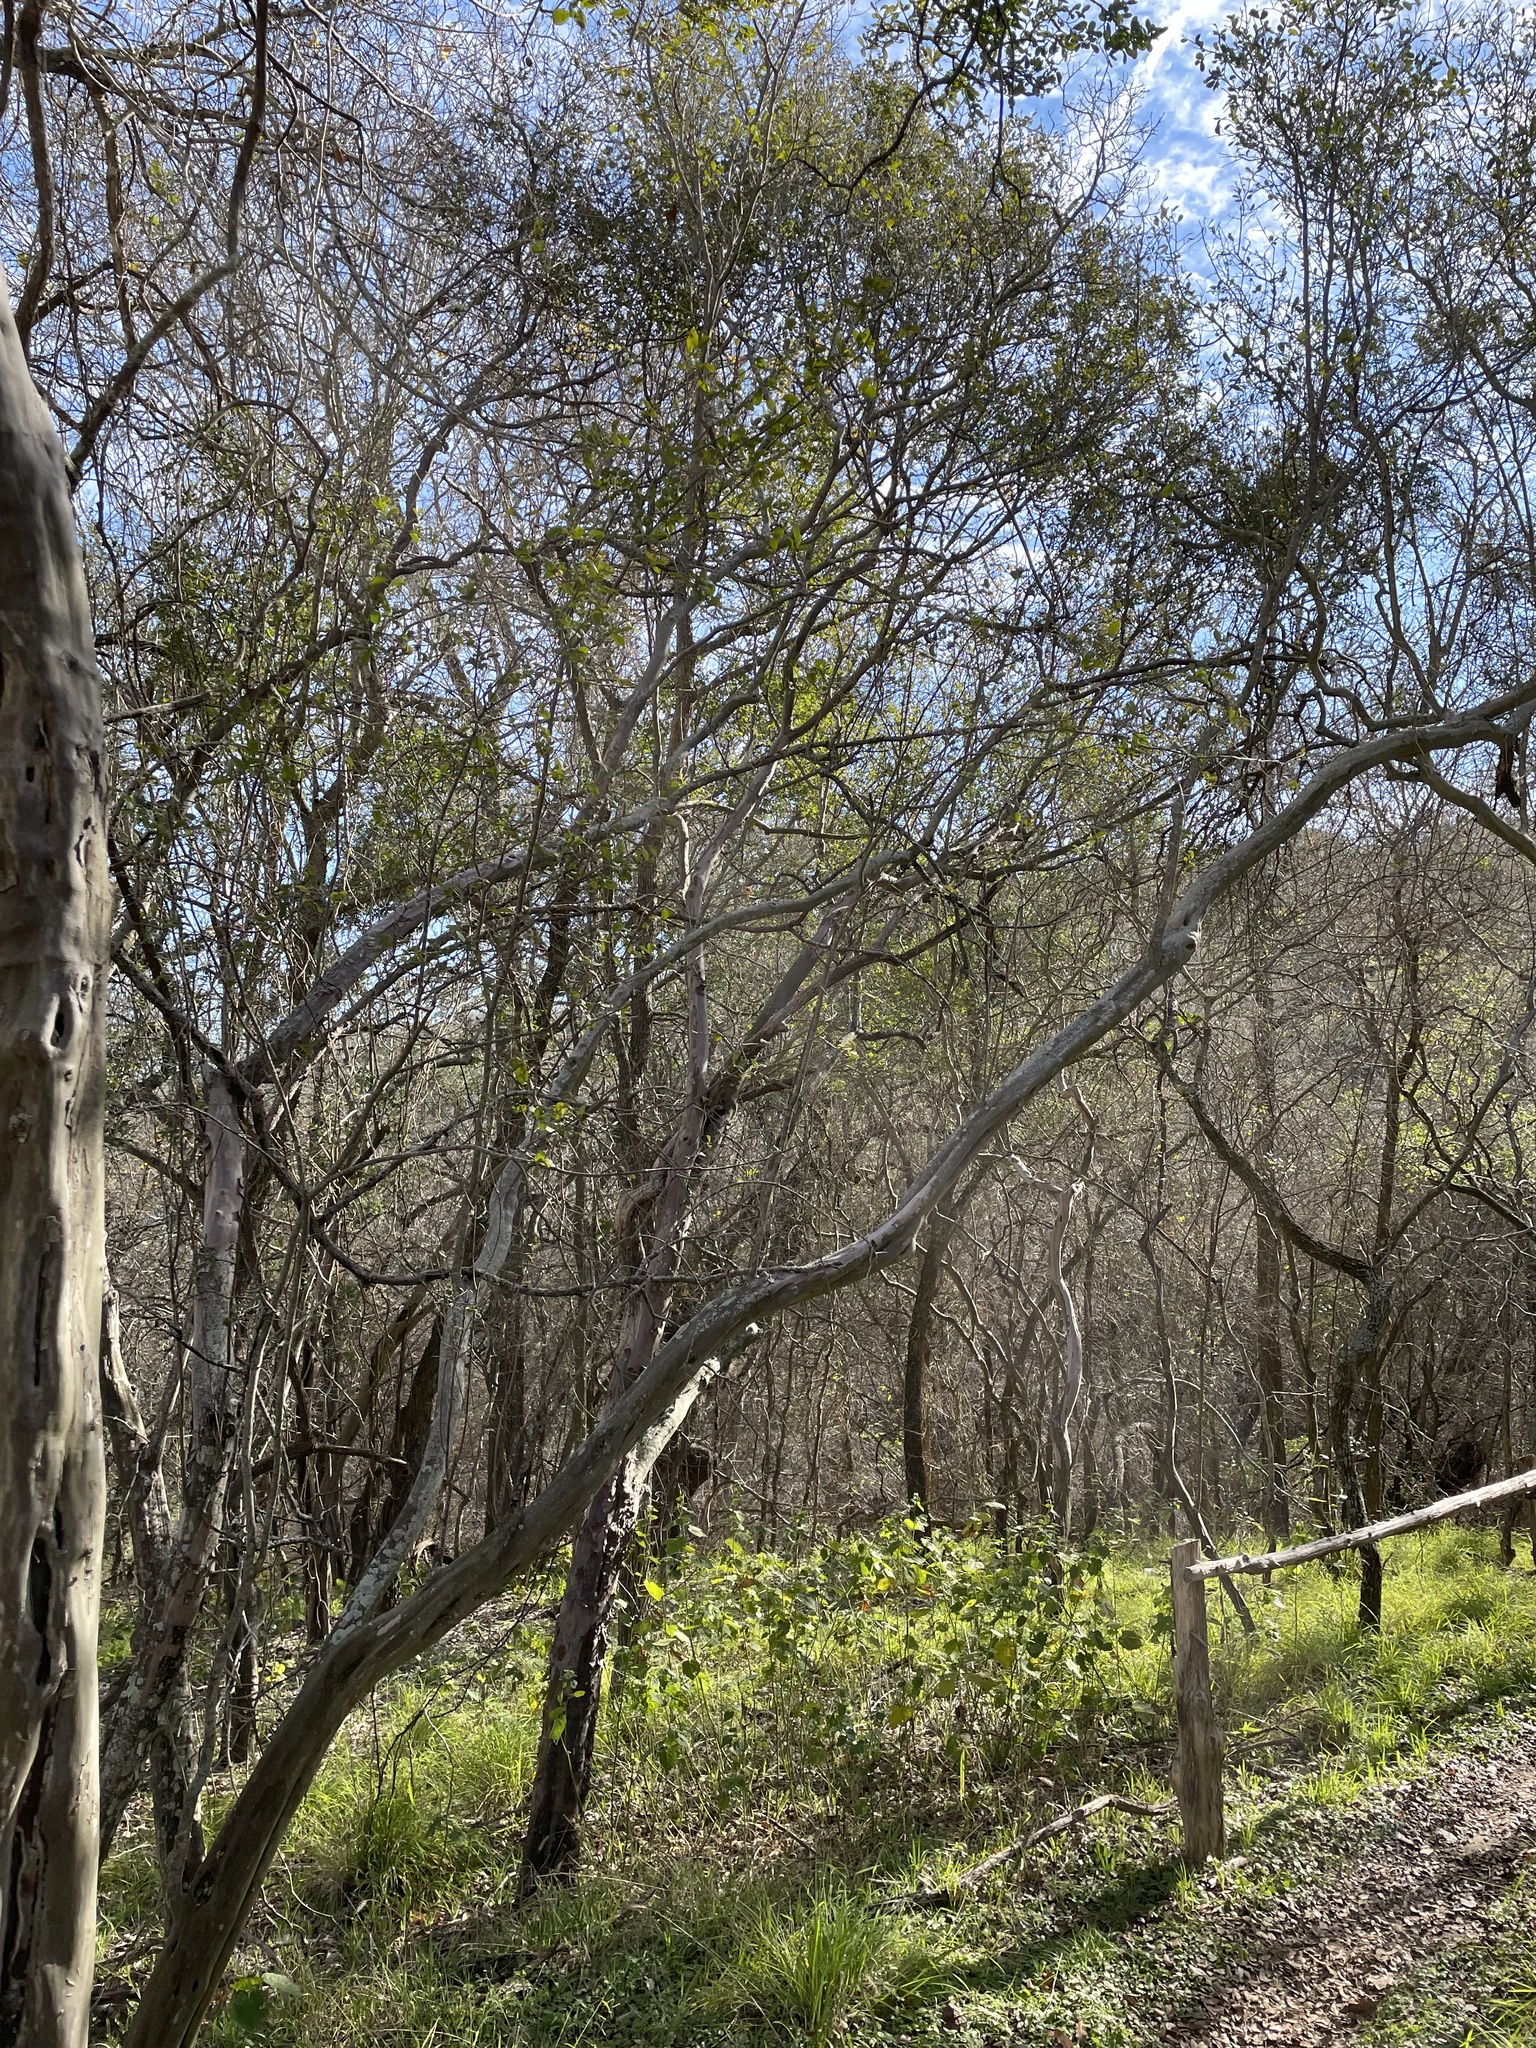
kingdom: Plantae
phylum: Tracheophyta
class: Magnoliopsida
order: Ericales
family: Ebenaceae
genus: Diospyros
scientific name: Diospyros texana
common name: Texas persimmon
